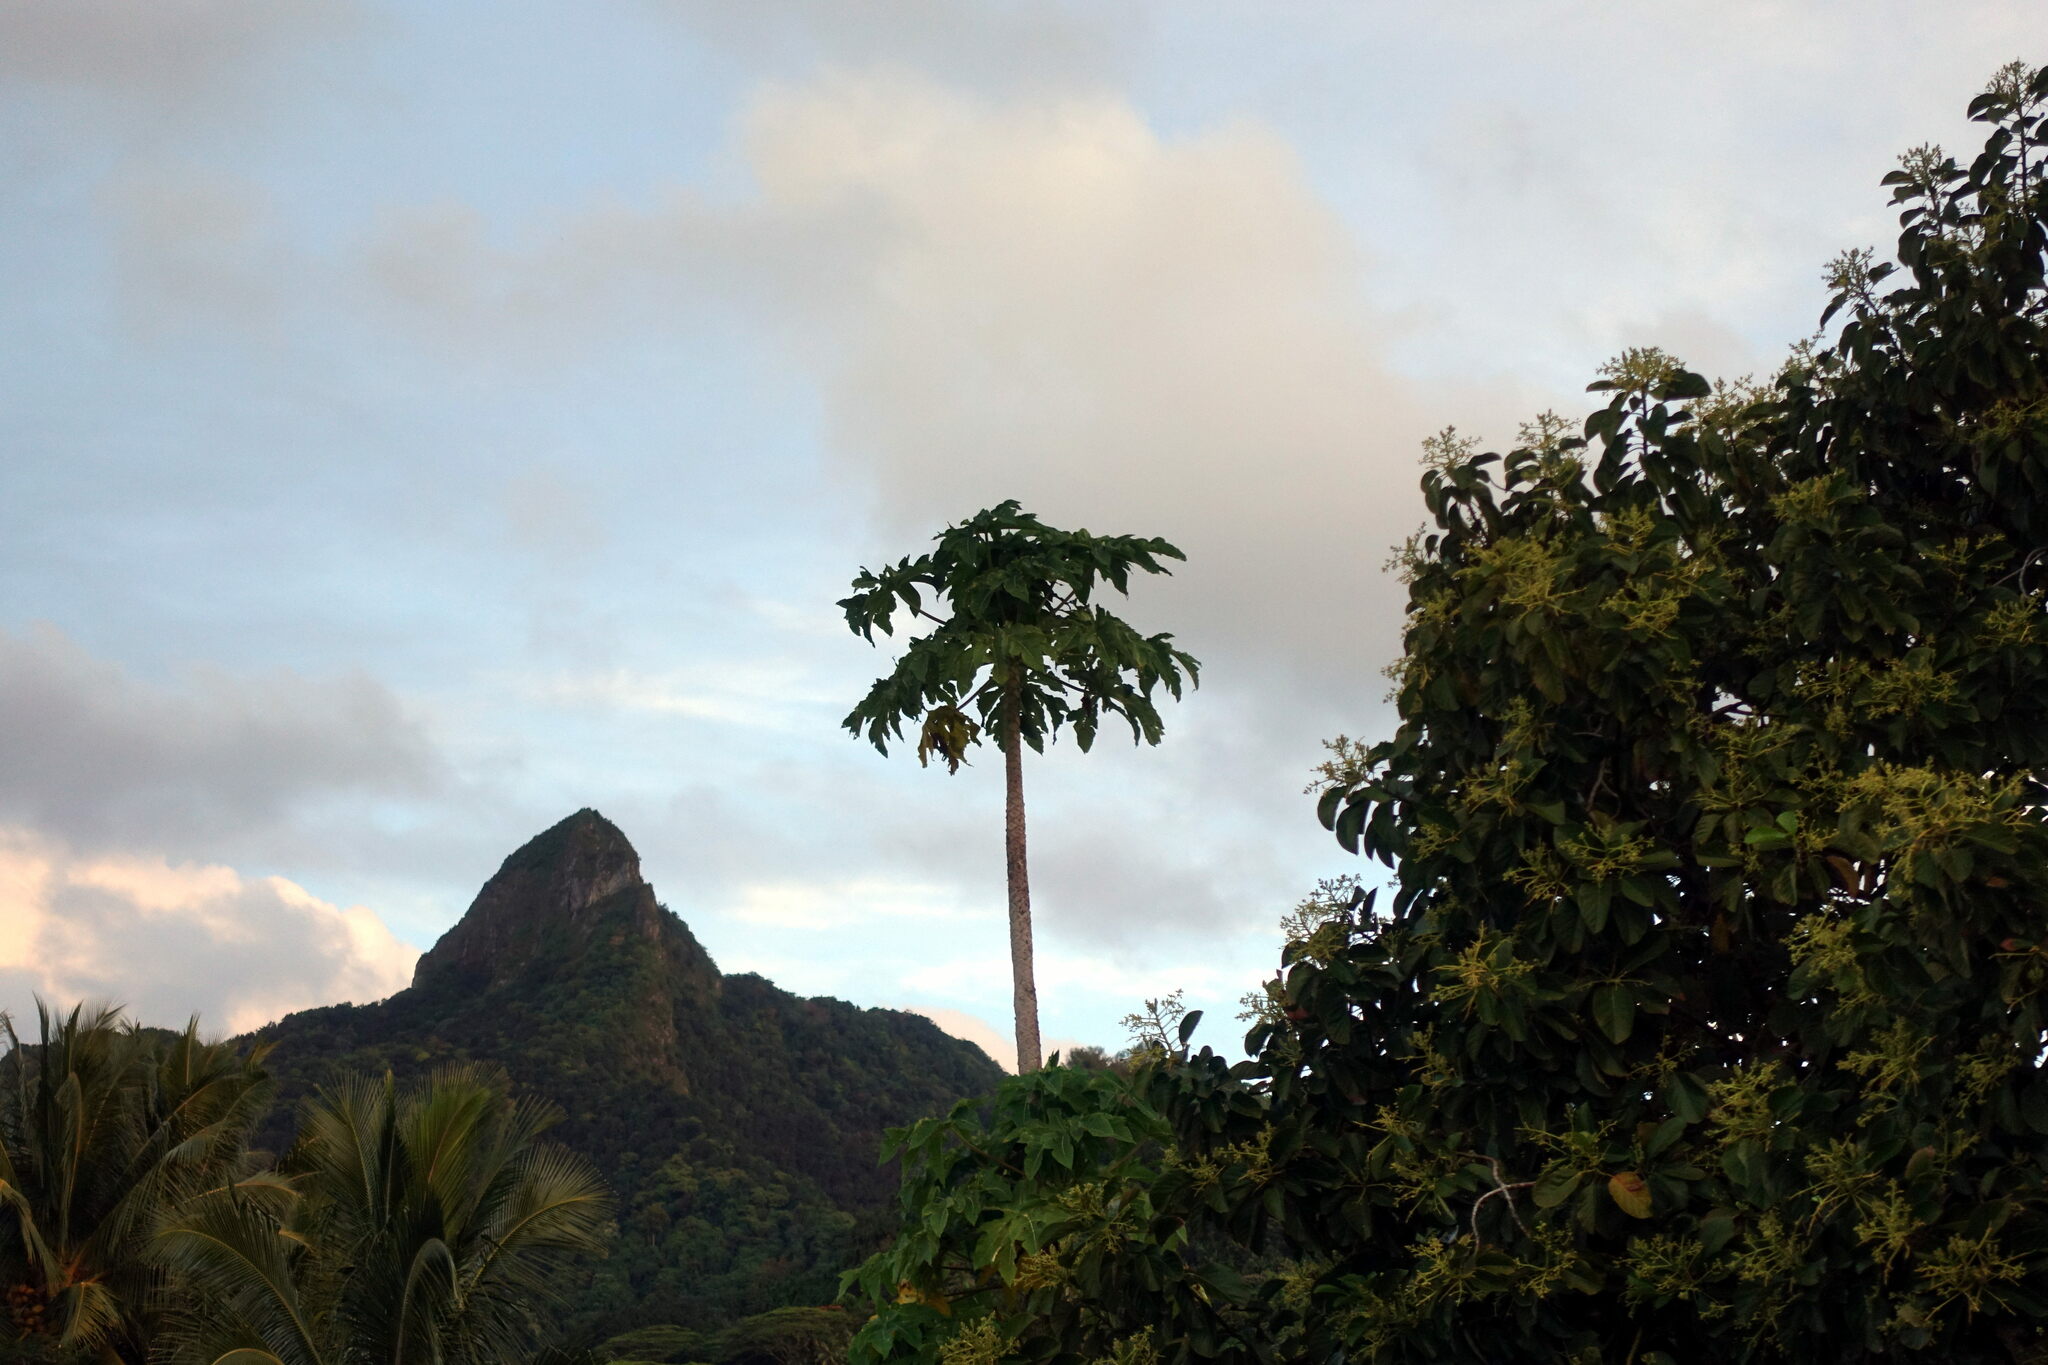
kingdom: Plantae
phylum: Tracheophyta
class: Magnoliopsida
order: Brassicales
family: Caricaceae
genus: Carica
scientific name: Carica papaya
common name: Papaya
